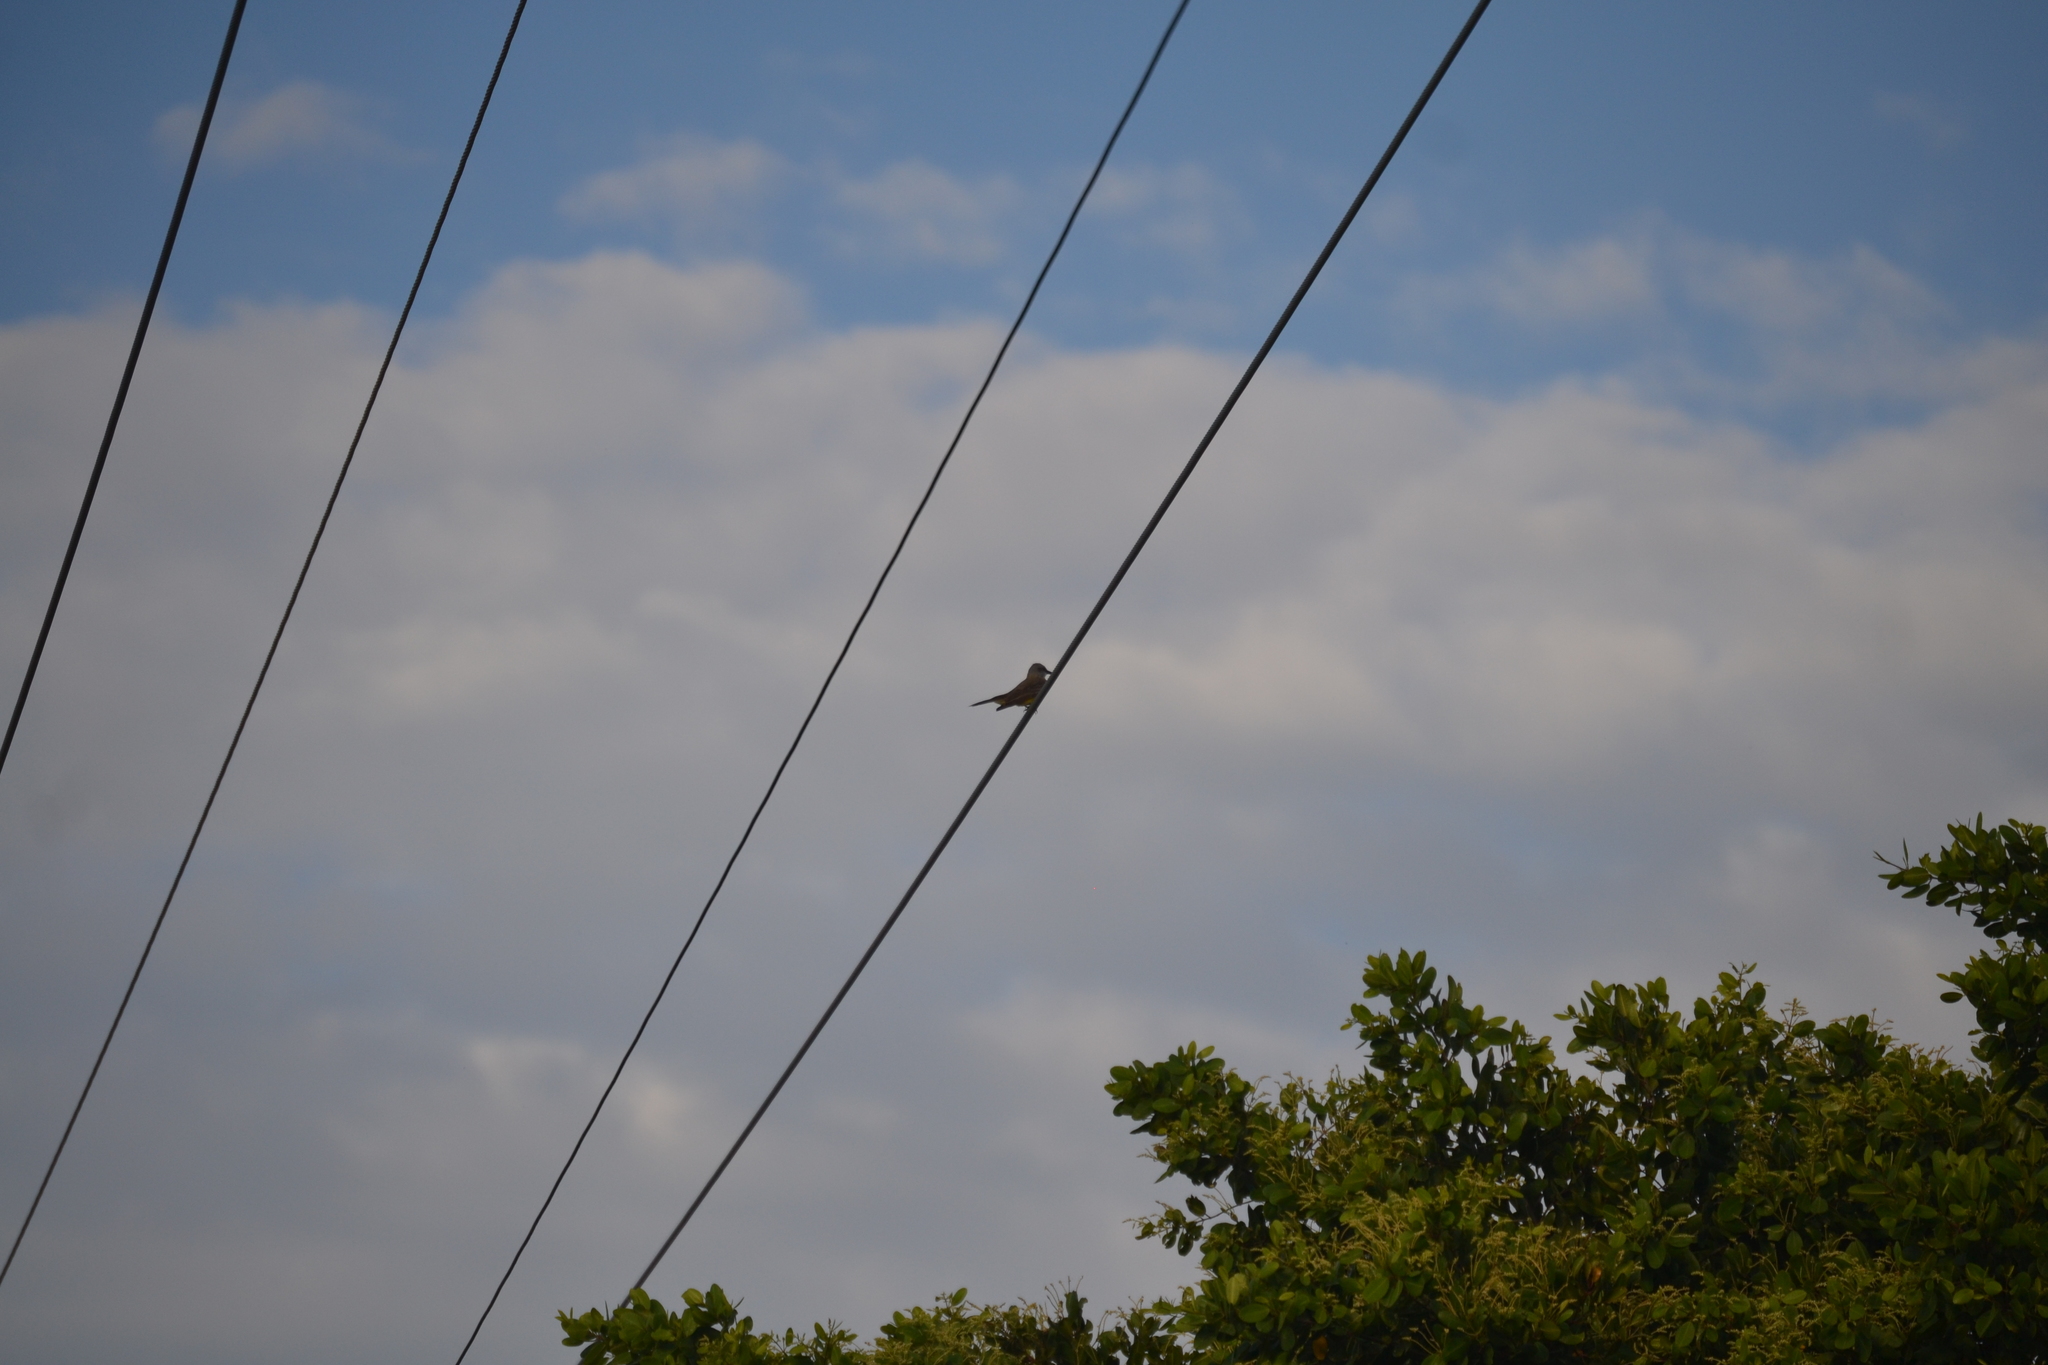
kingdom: Animalia
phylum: Chordata
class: Aves
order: Passeriformes
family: Tyrannidae
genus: Tyrannus
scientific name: Tyrannus
